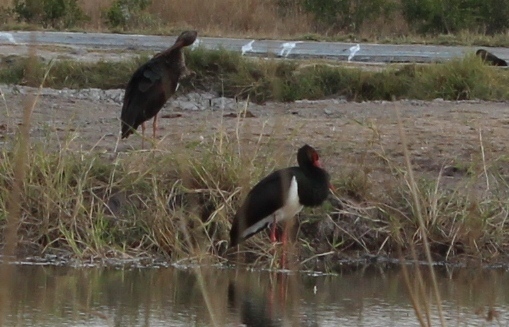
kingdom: Animalia
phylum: Chordata
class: Aves
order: Ciconiiformes
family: Ciconiidae
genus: Ciconia
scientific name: Ciconia nigra
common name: Black stork
